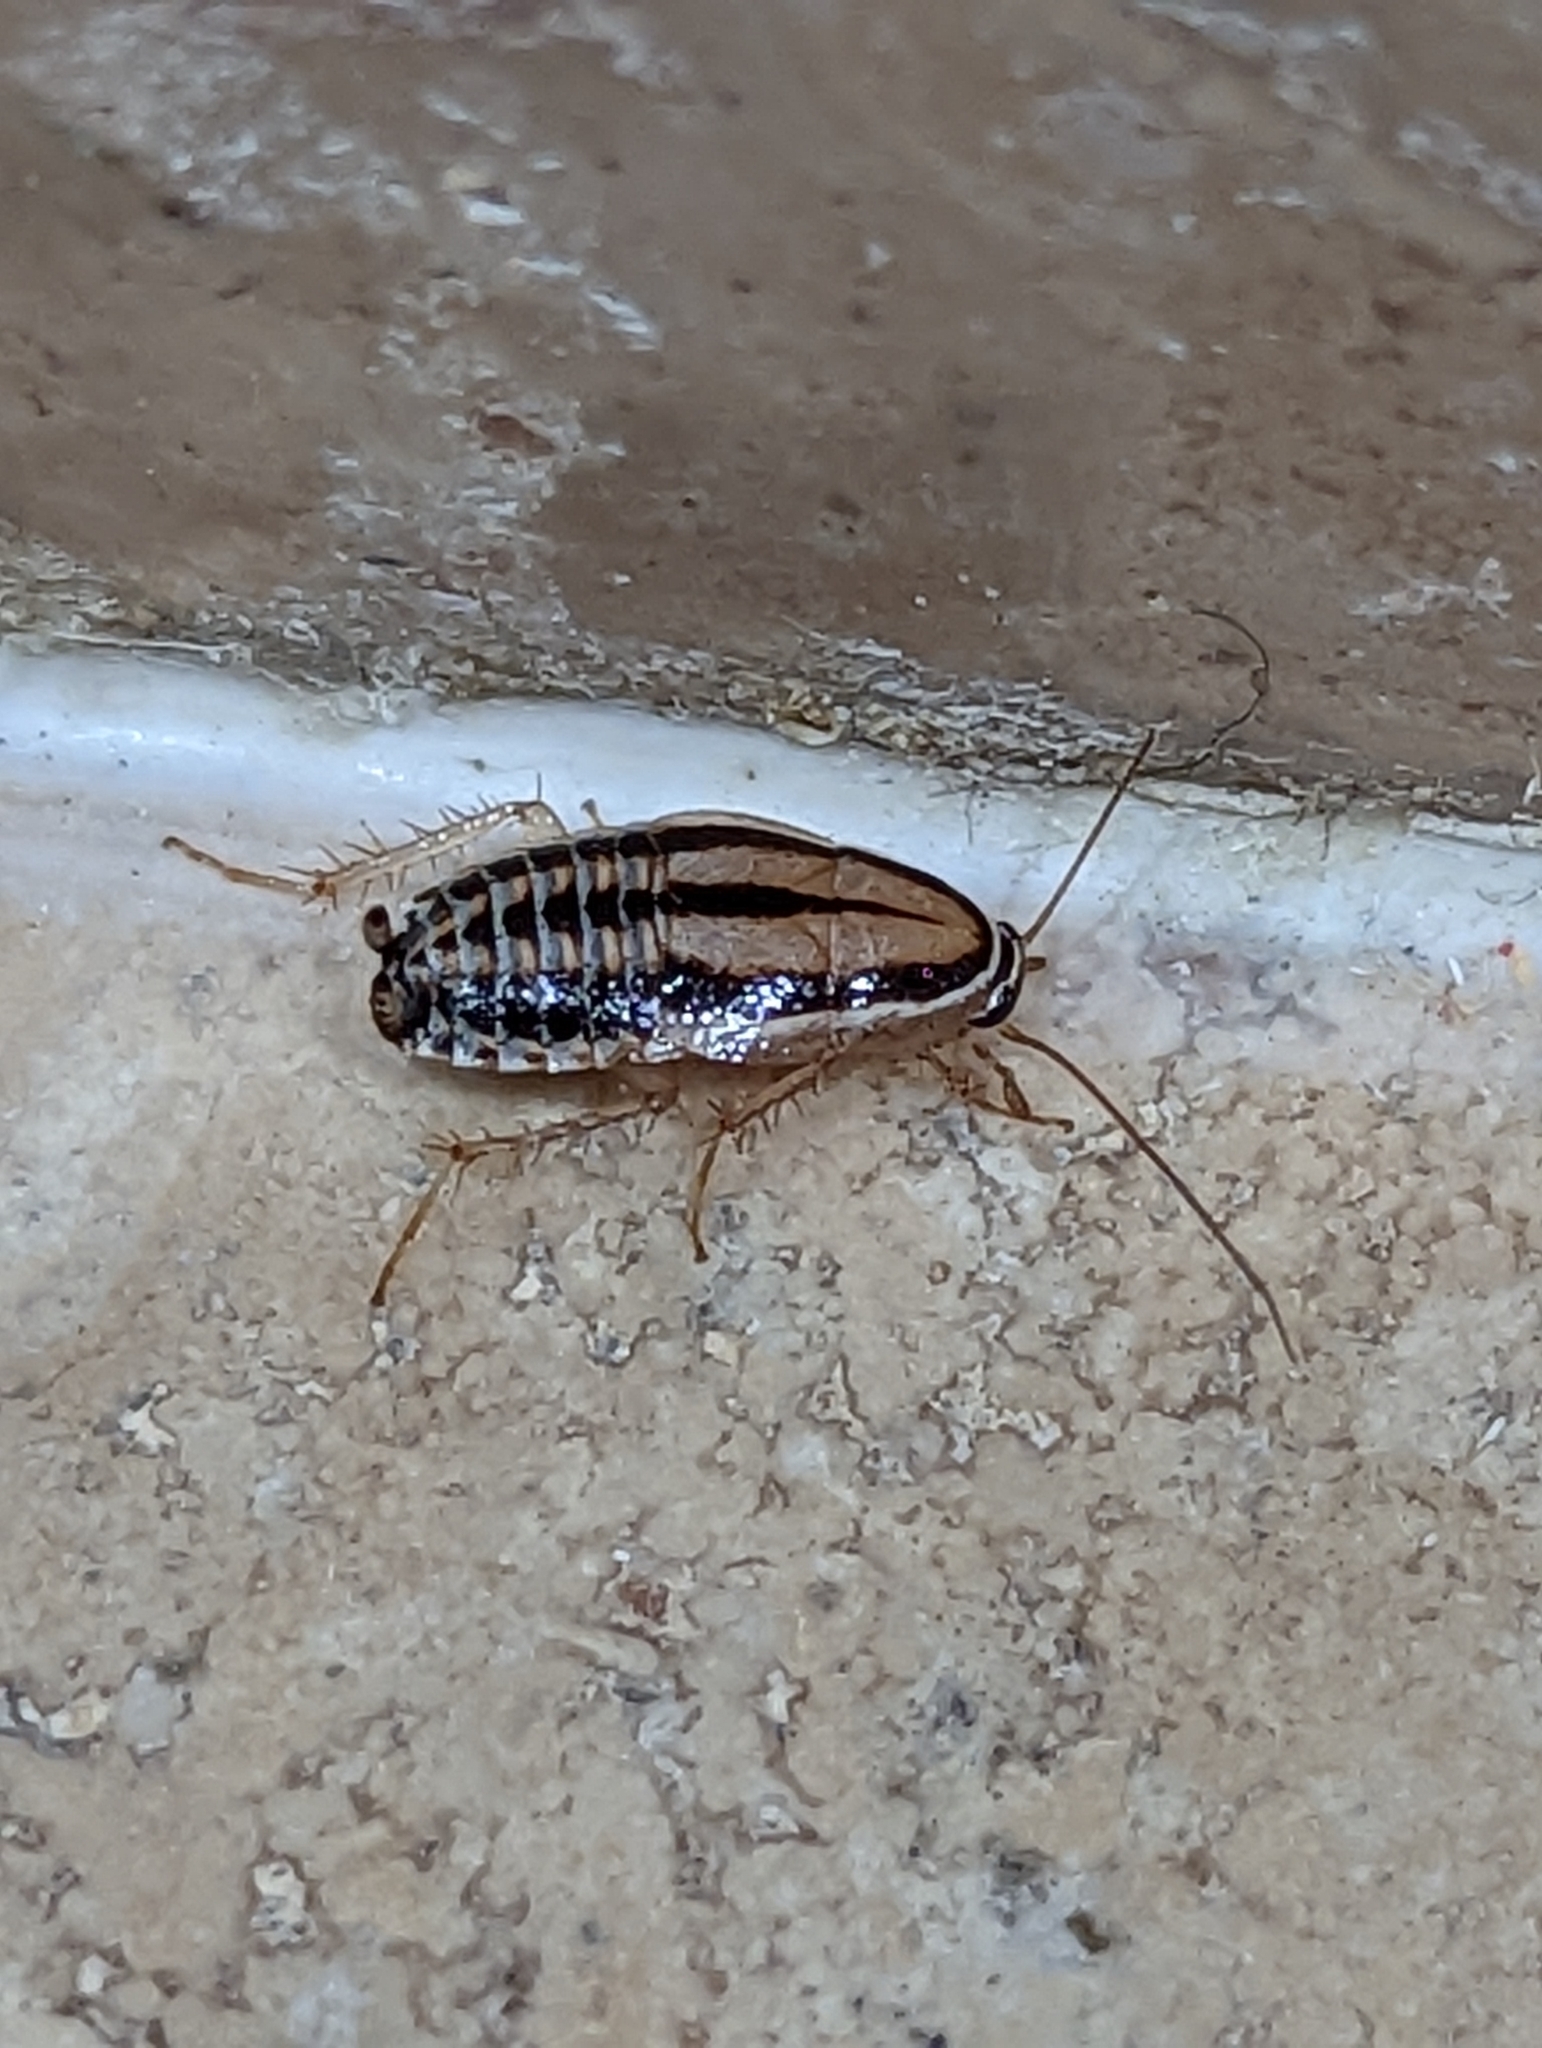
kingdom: Animalia
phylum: Arthropoda
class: Insecta
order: Blattodea
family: Ectobiidae
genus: Luridiblatta
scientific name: Luridiblatta trivittata
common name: Three-lined cockroach
